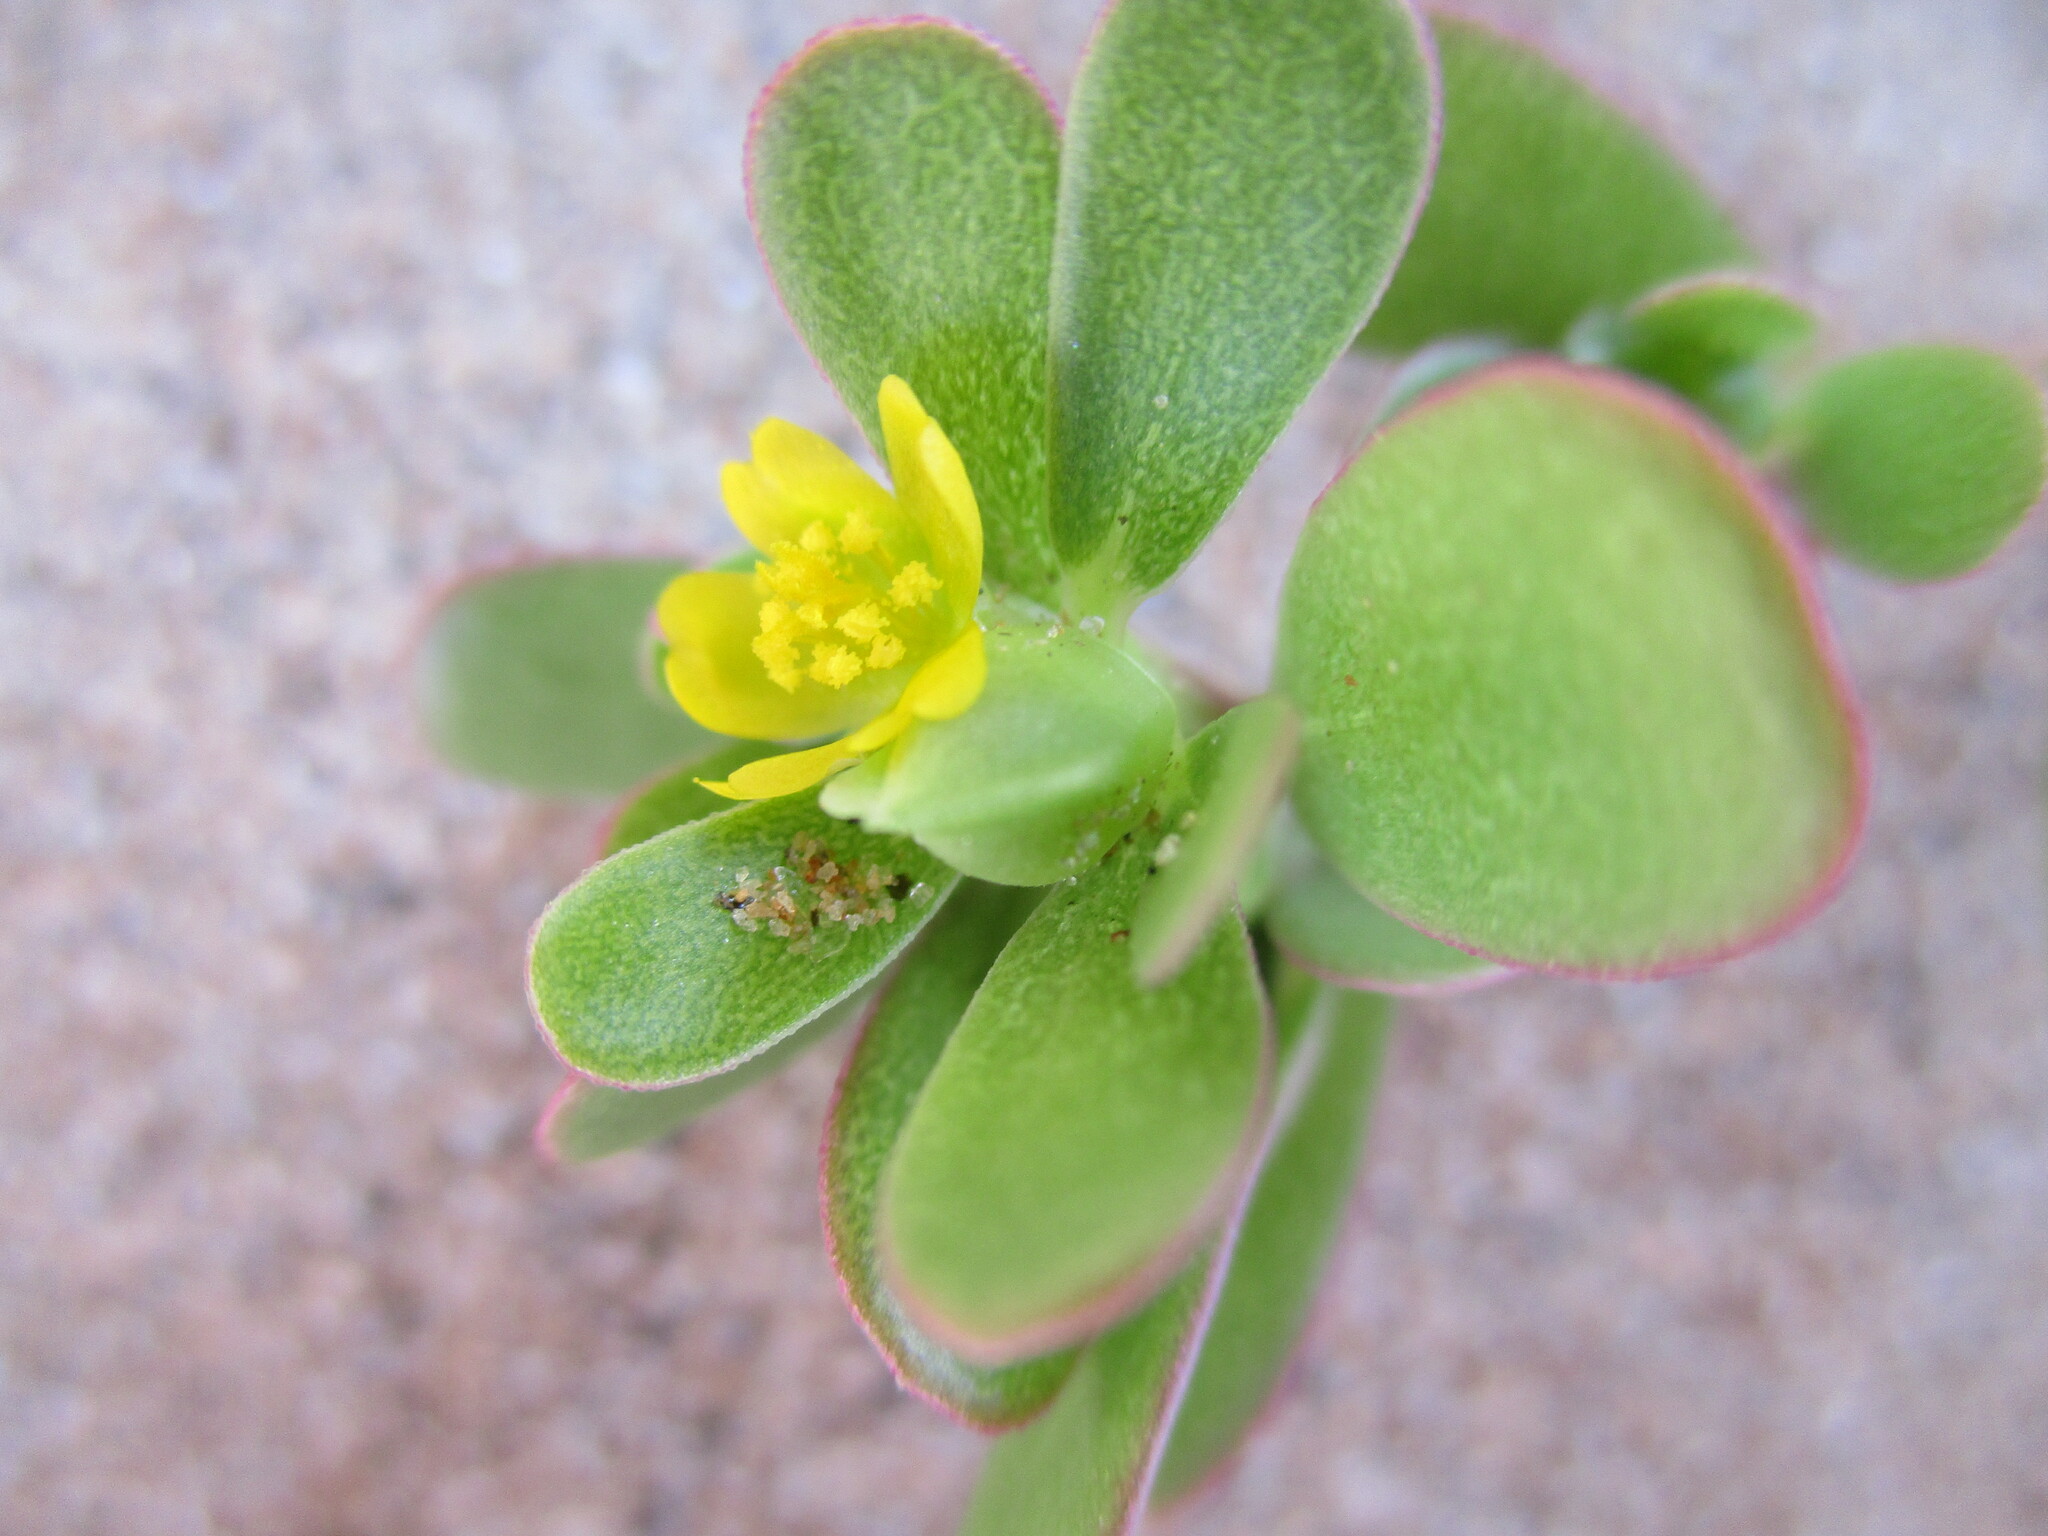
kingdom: Plantae
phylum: Tracheophyta
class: Magnoliopsida
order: Caryophyllales
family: Portulacaceae
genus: Portulaca
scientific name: Portulaca oleracea
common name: Common purslane
